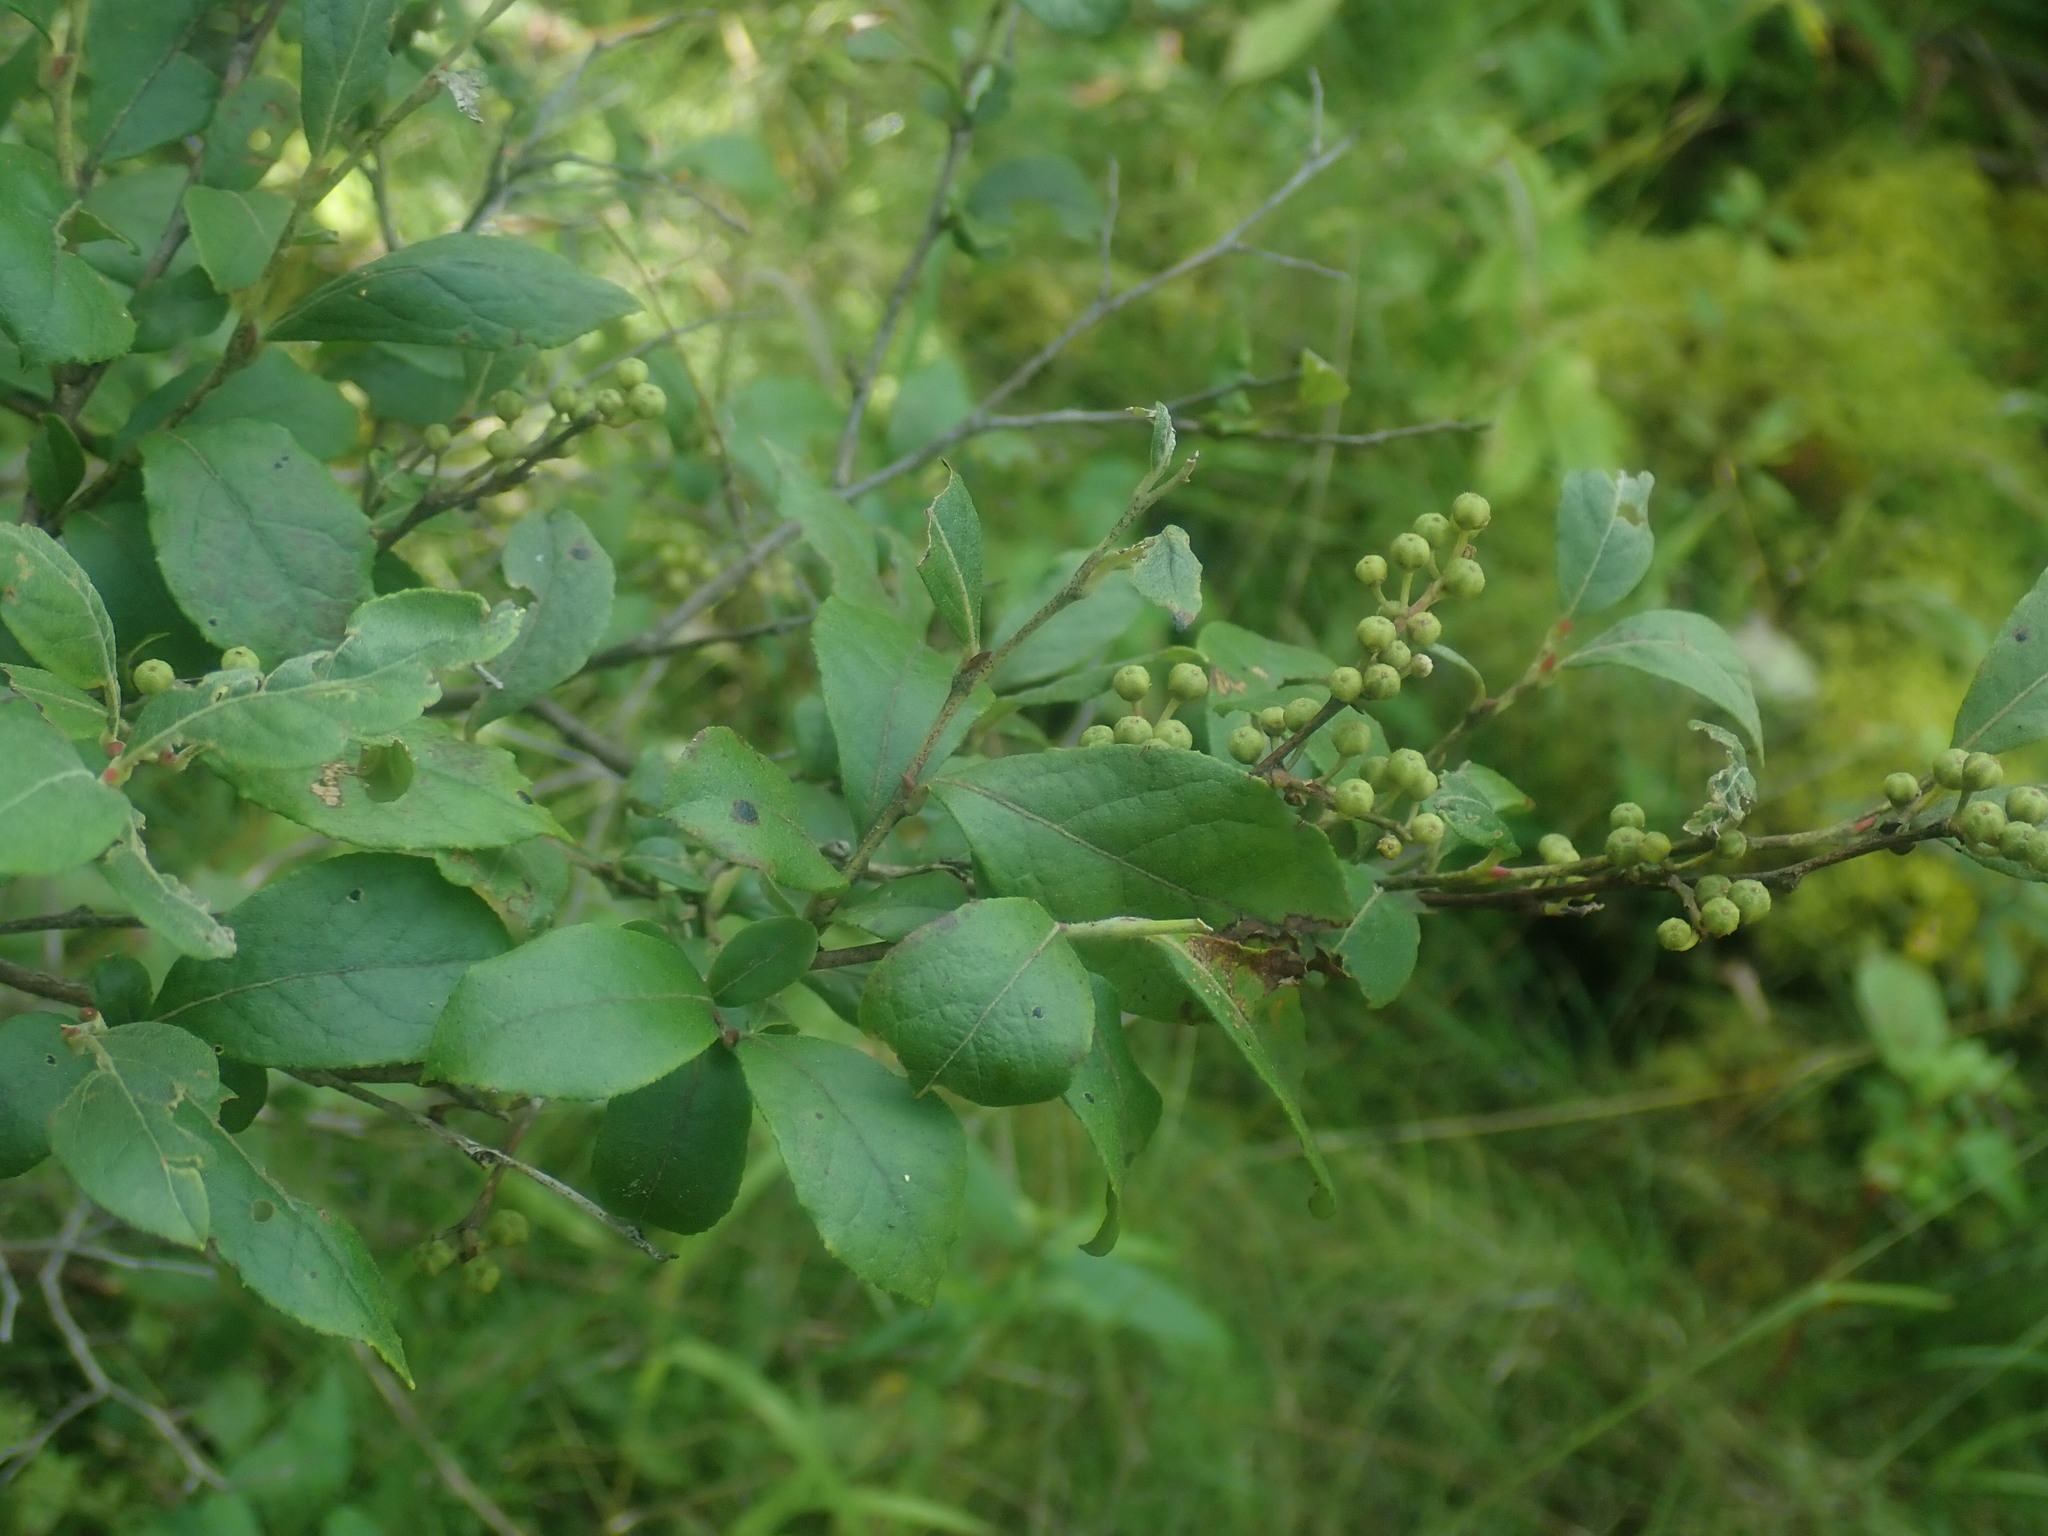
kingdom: Plantae
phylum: Tracheophyta
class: Magnoliopsida
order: Ericales
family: Ericaceae
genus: Lyonia
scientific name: Lyonia ligustrina
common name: Maleberry
